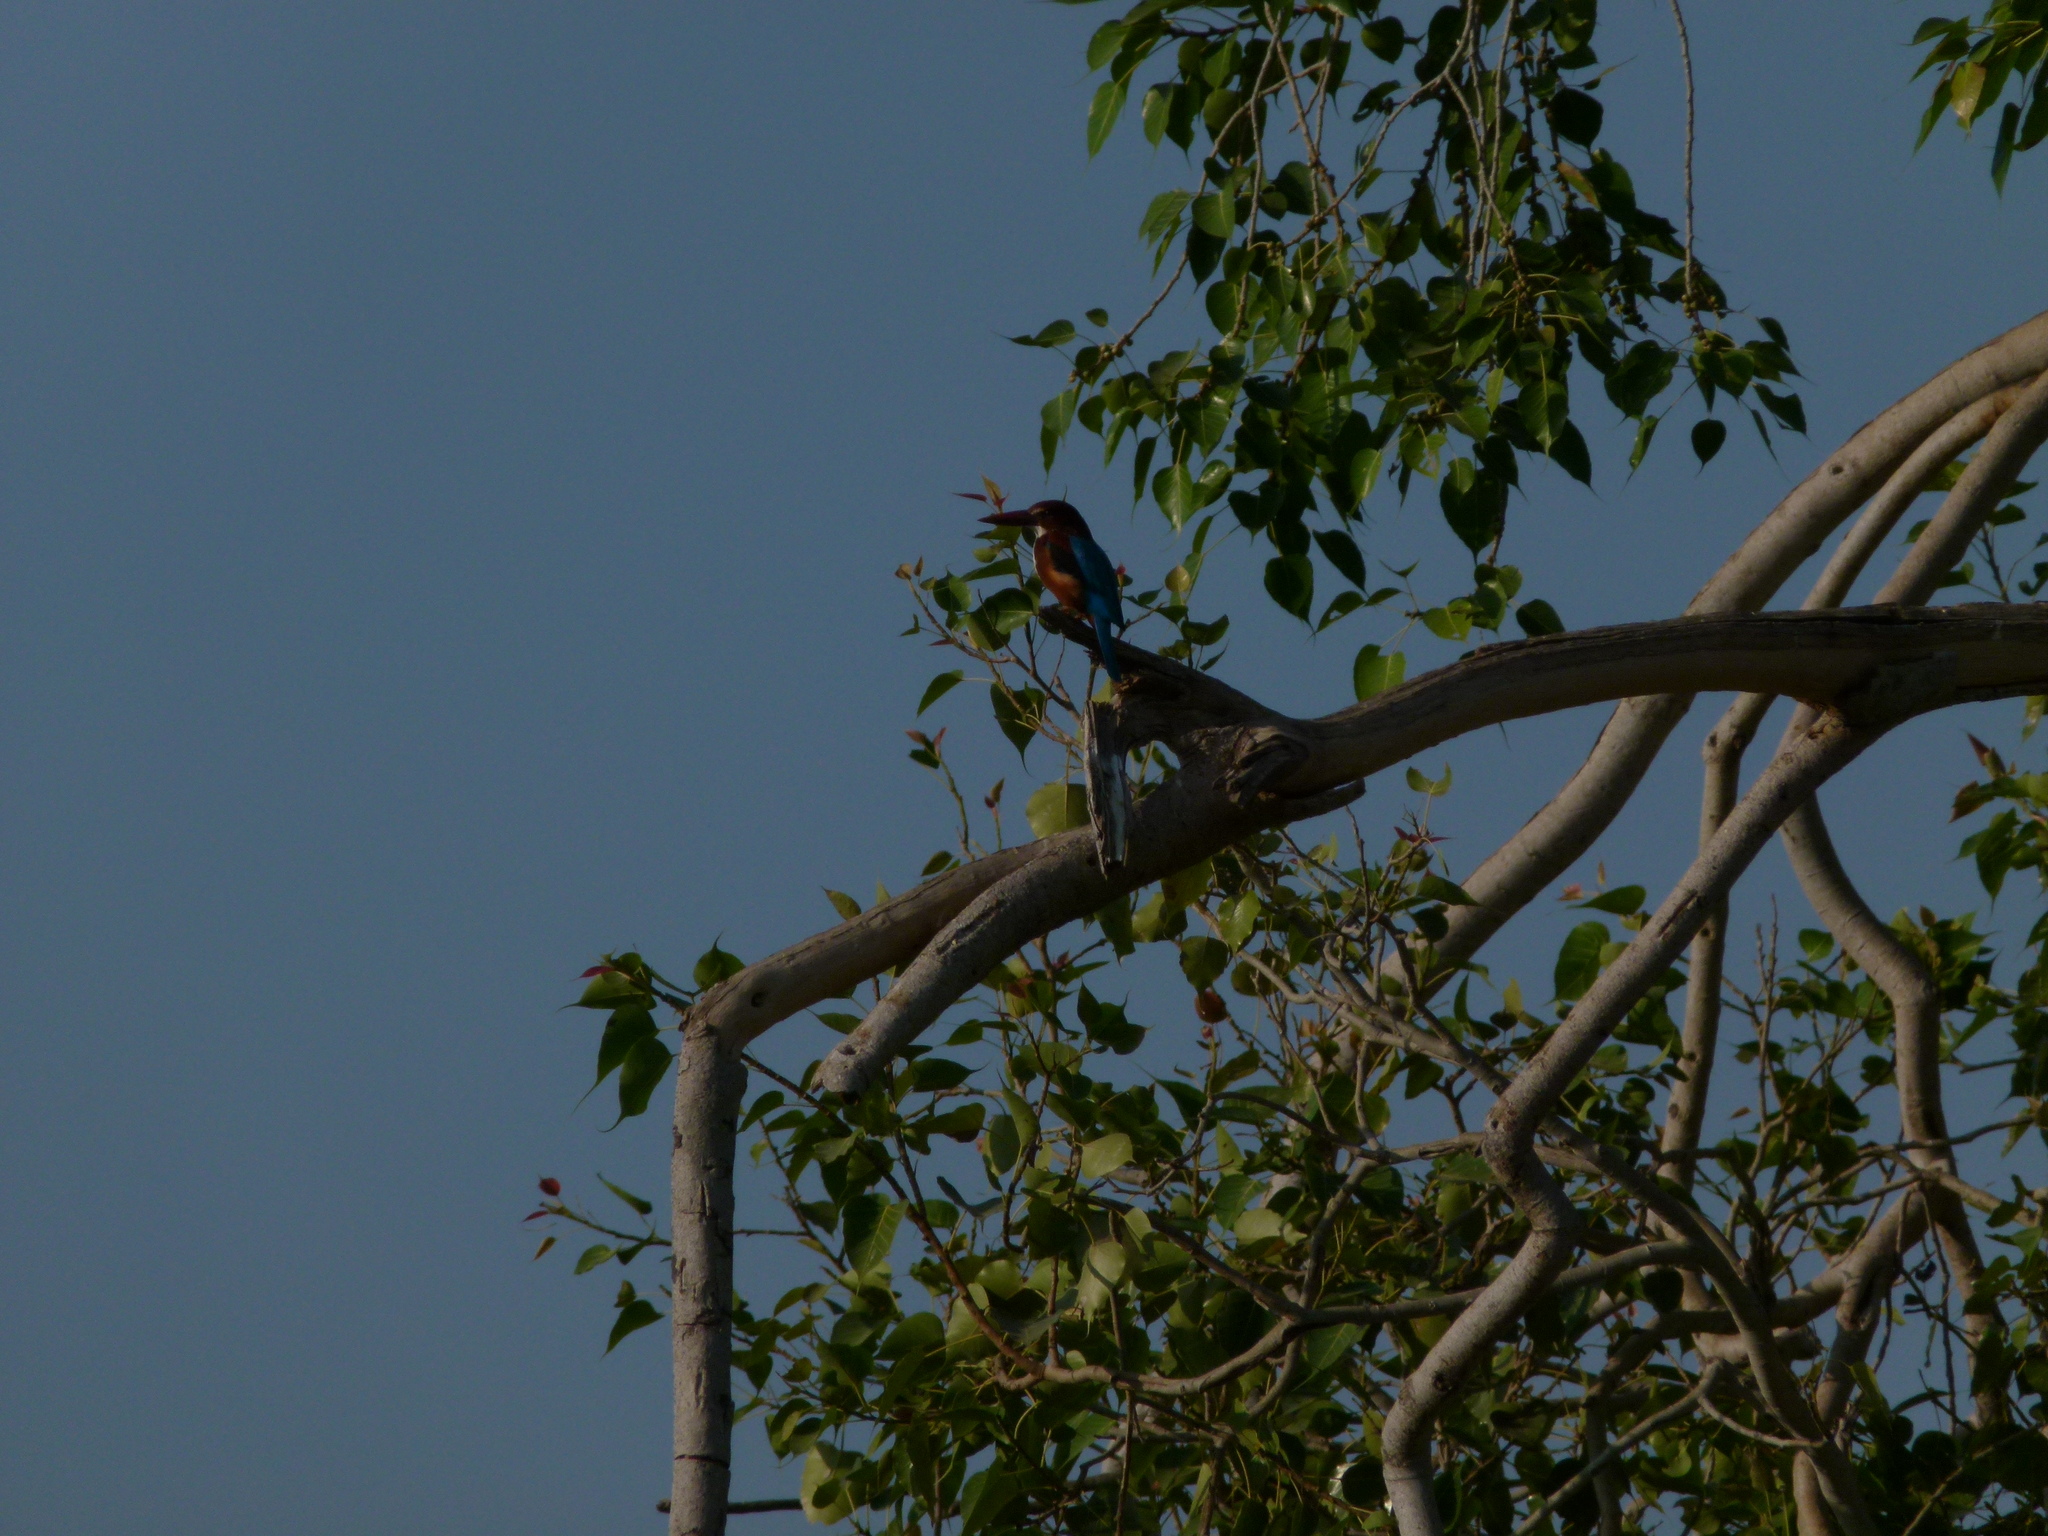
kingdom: Animalia
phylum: Chordata
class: Aves
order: Coraciiformes
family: Alcedinidae
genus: Halcyon
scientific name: Halcyon smyrnensis
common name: White-throated kingfisher
